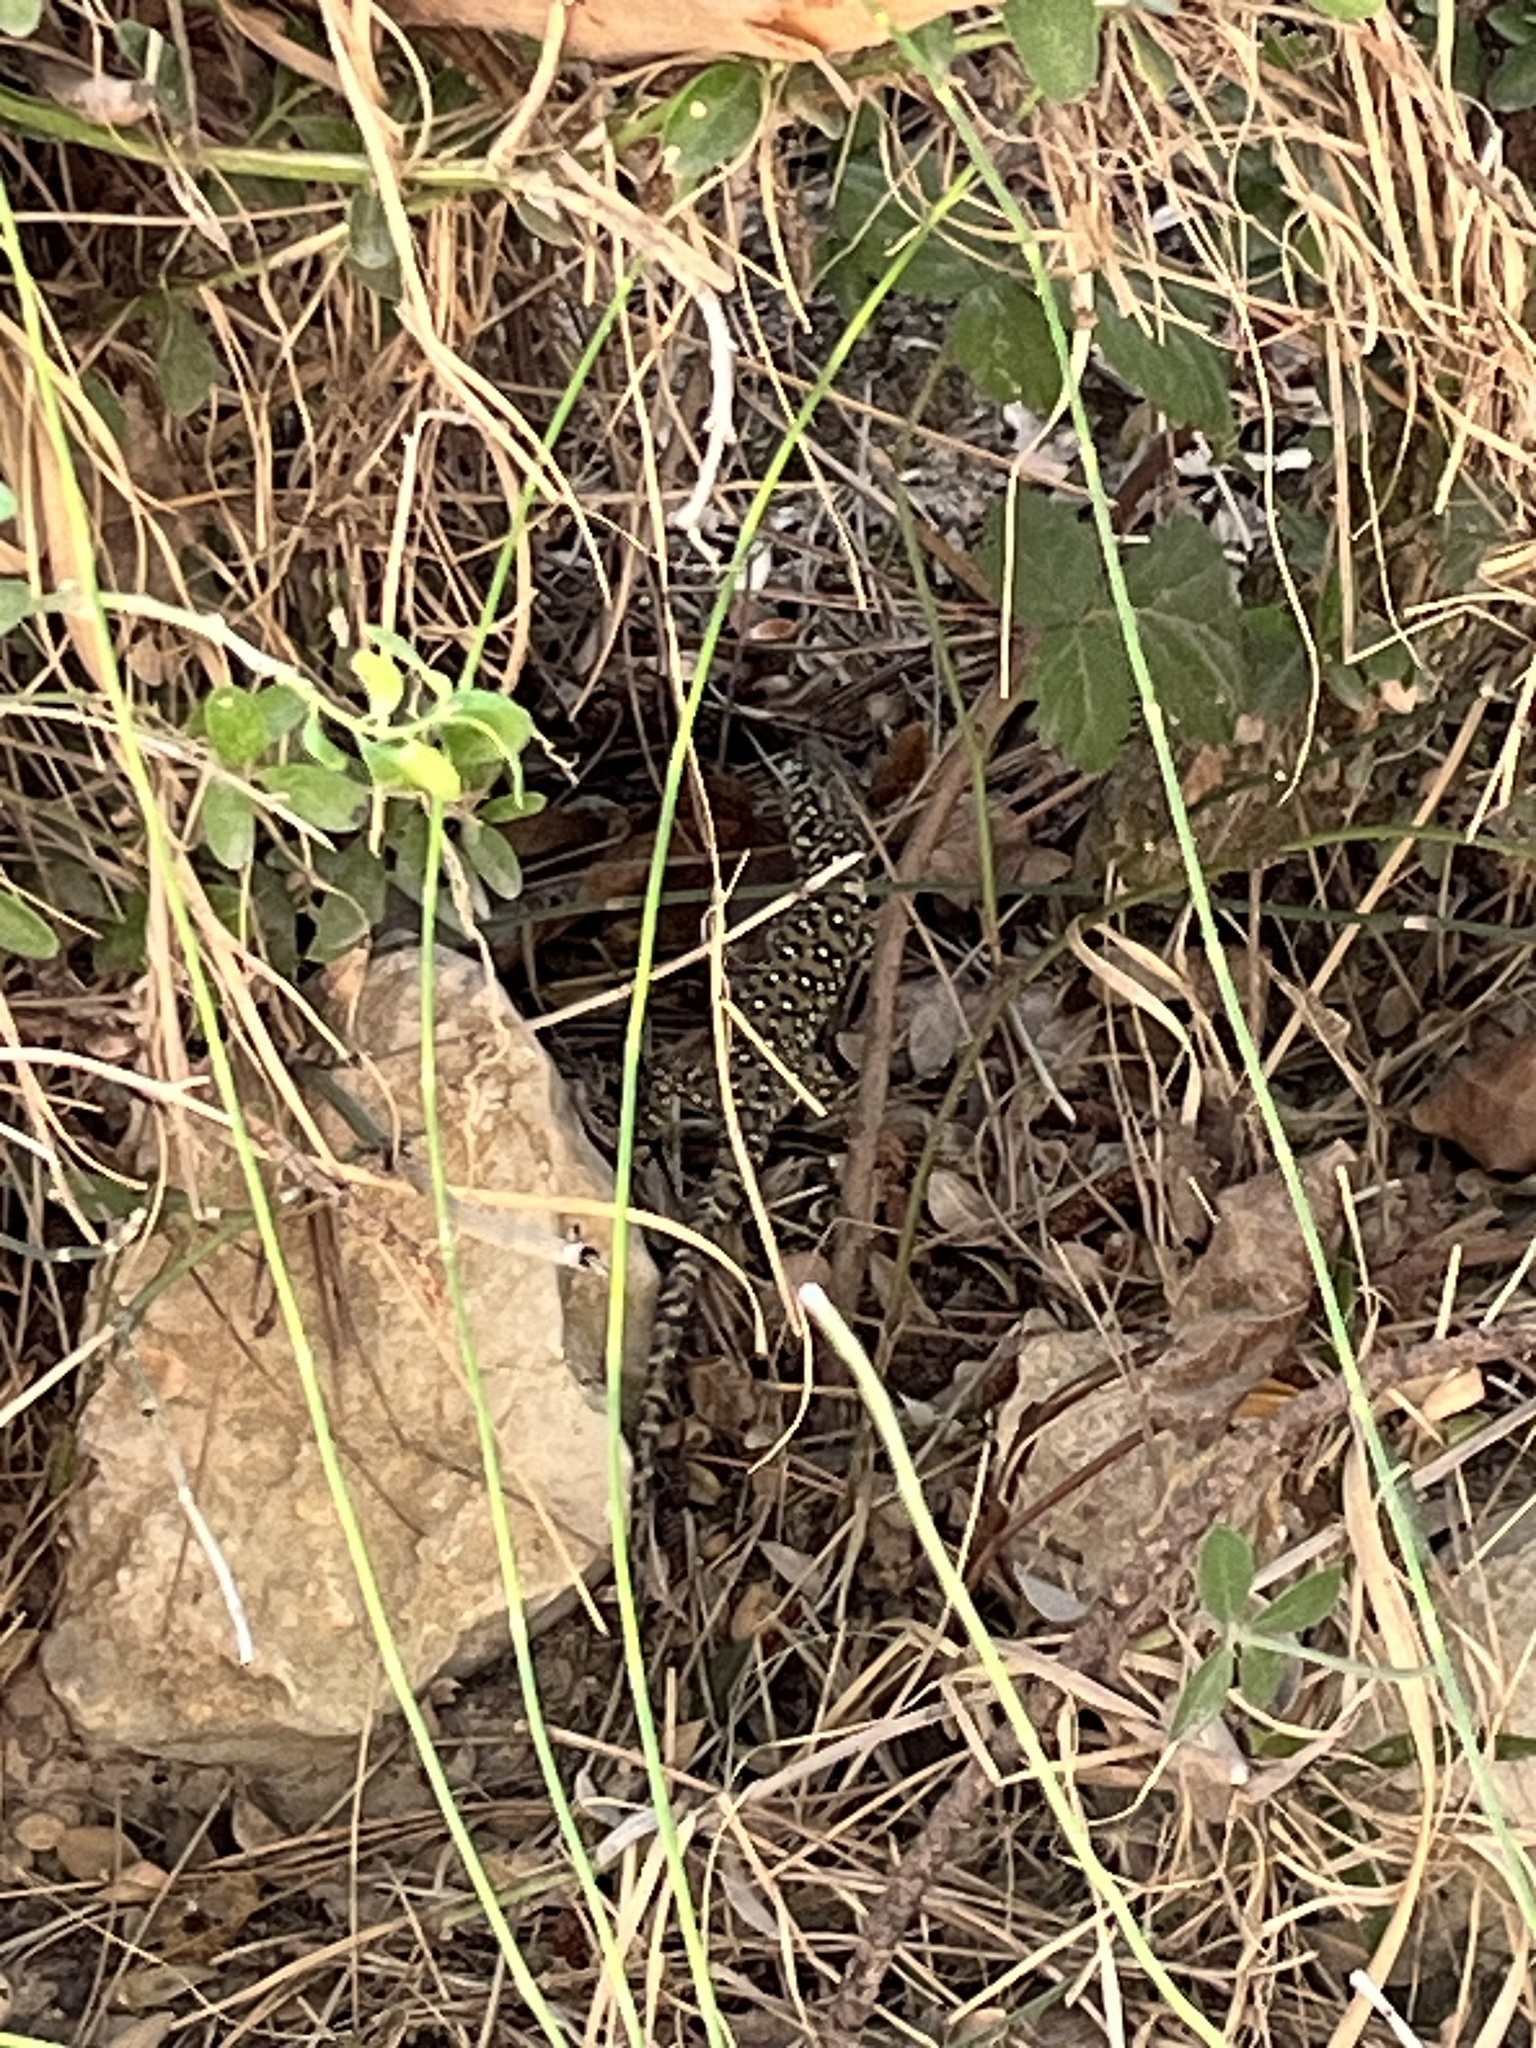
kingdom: Animalia
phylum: Chordata
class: Squamata
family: Lacertidae
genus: Timon
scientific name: Timon nevadensis
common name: Sierra nevada (ocellated) lizard
